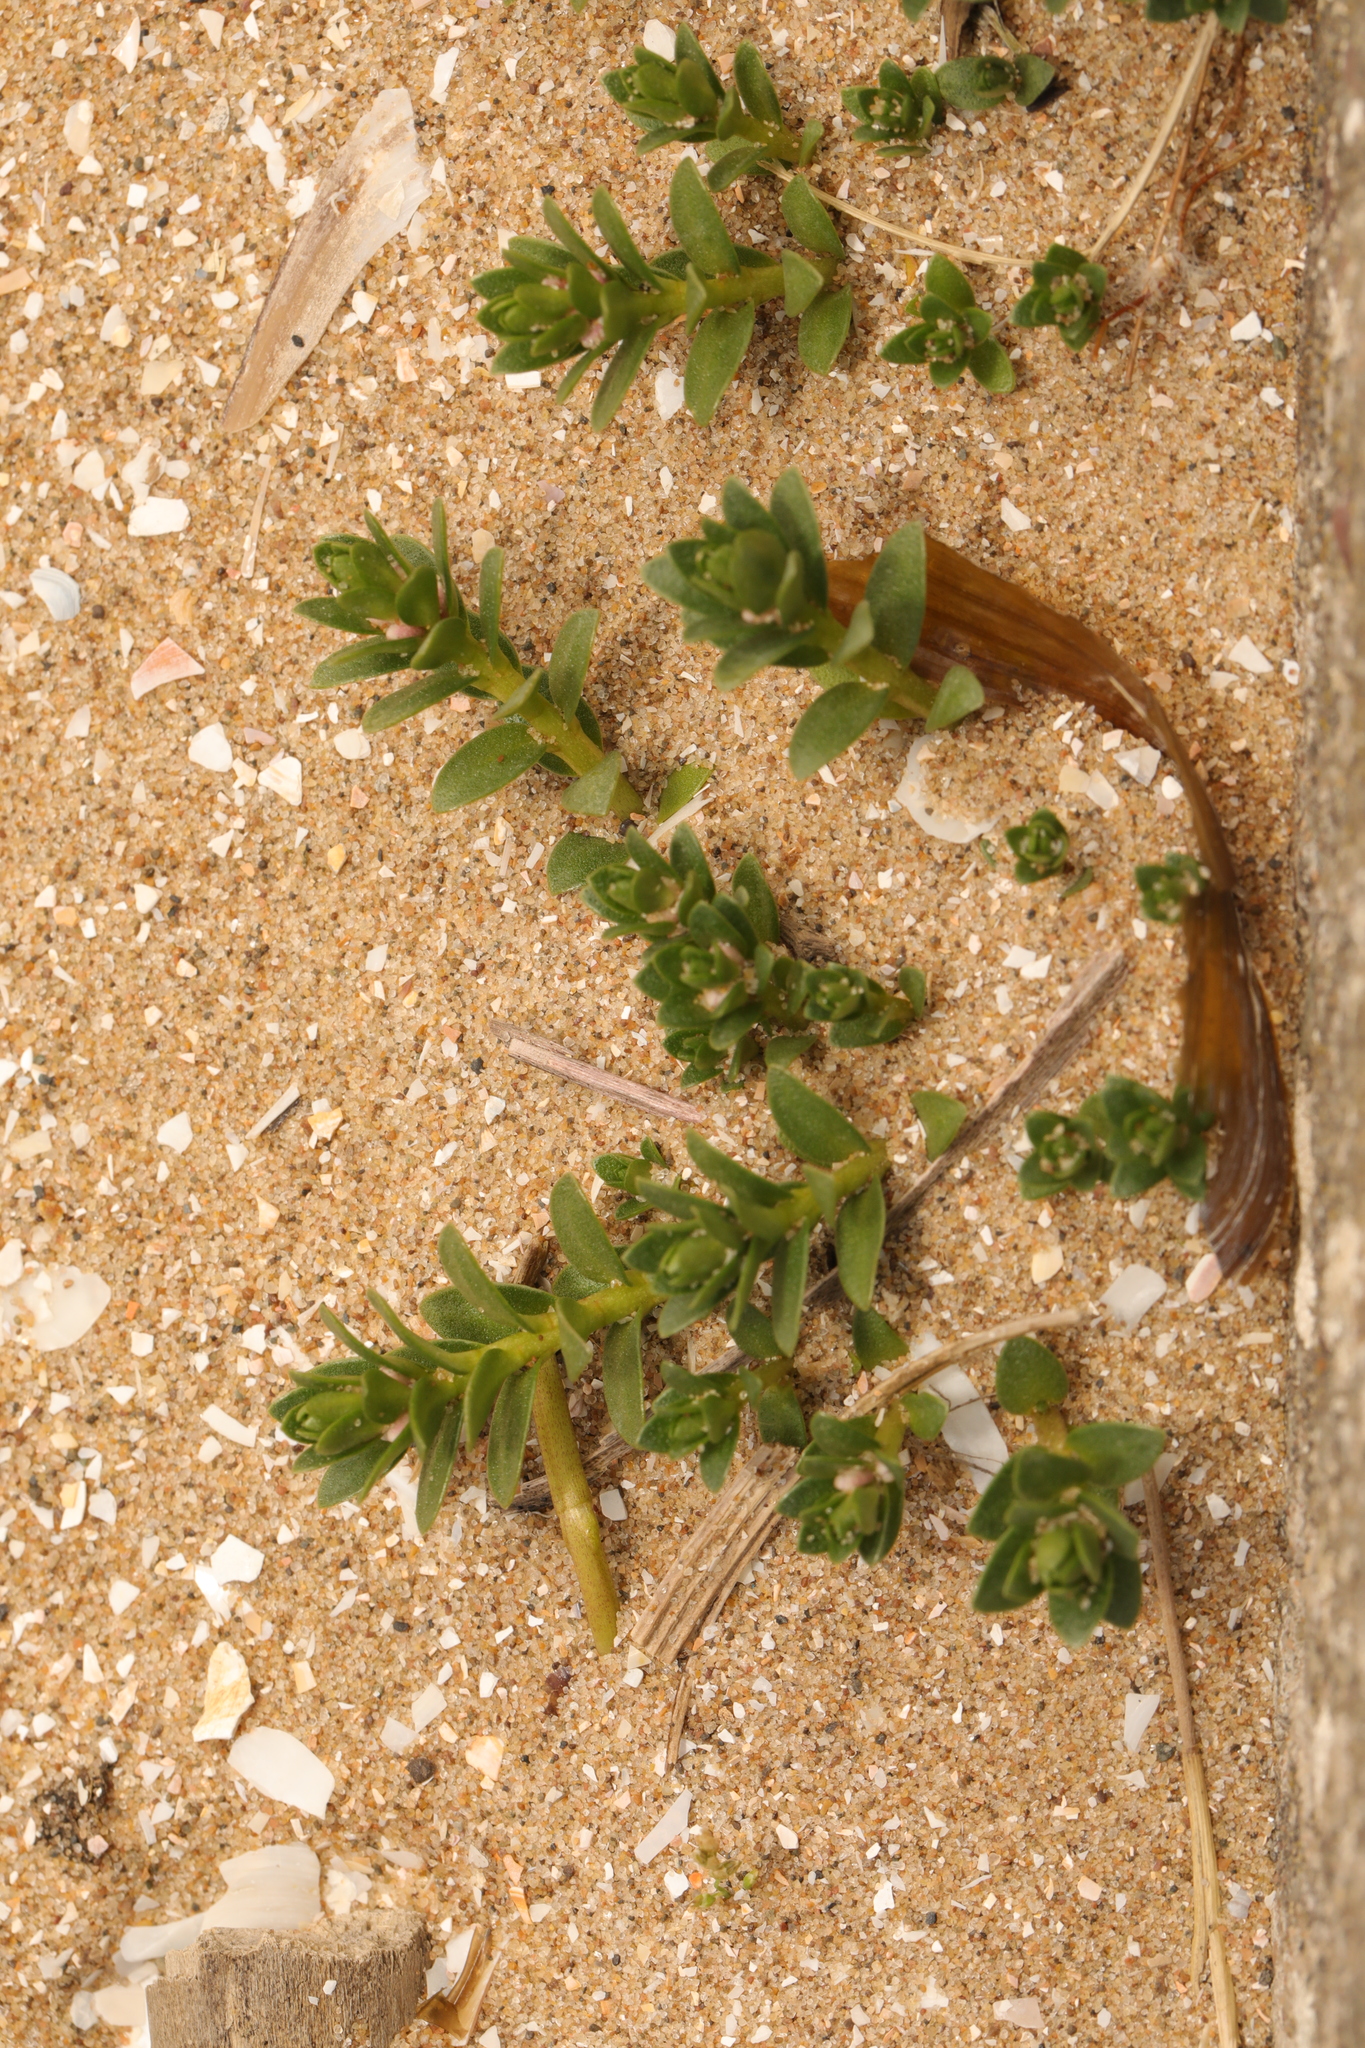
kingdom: Plantae
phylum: Tracheophyta
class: Magnoliopsida
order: Ericales
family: Primulaceae
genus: Lysimachia
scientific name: Lysimachia maritima
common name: Sea milkwort
